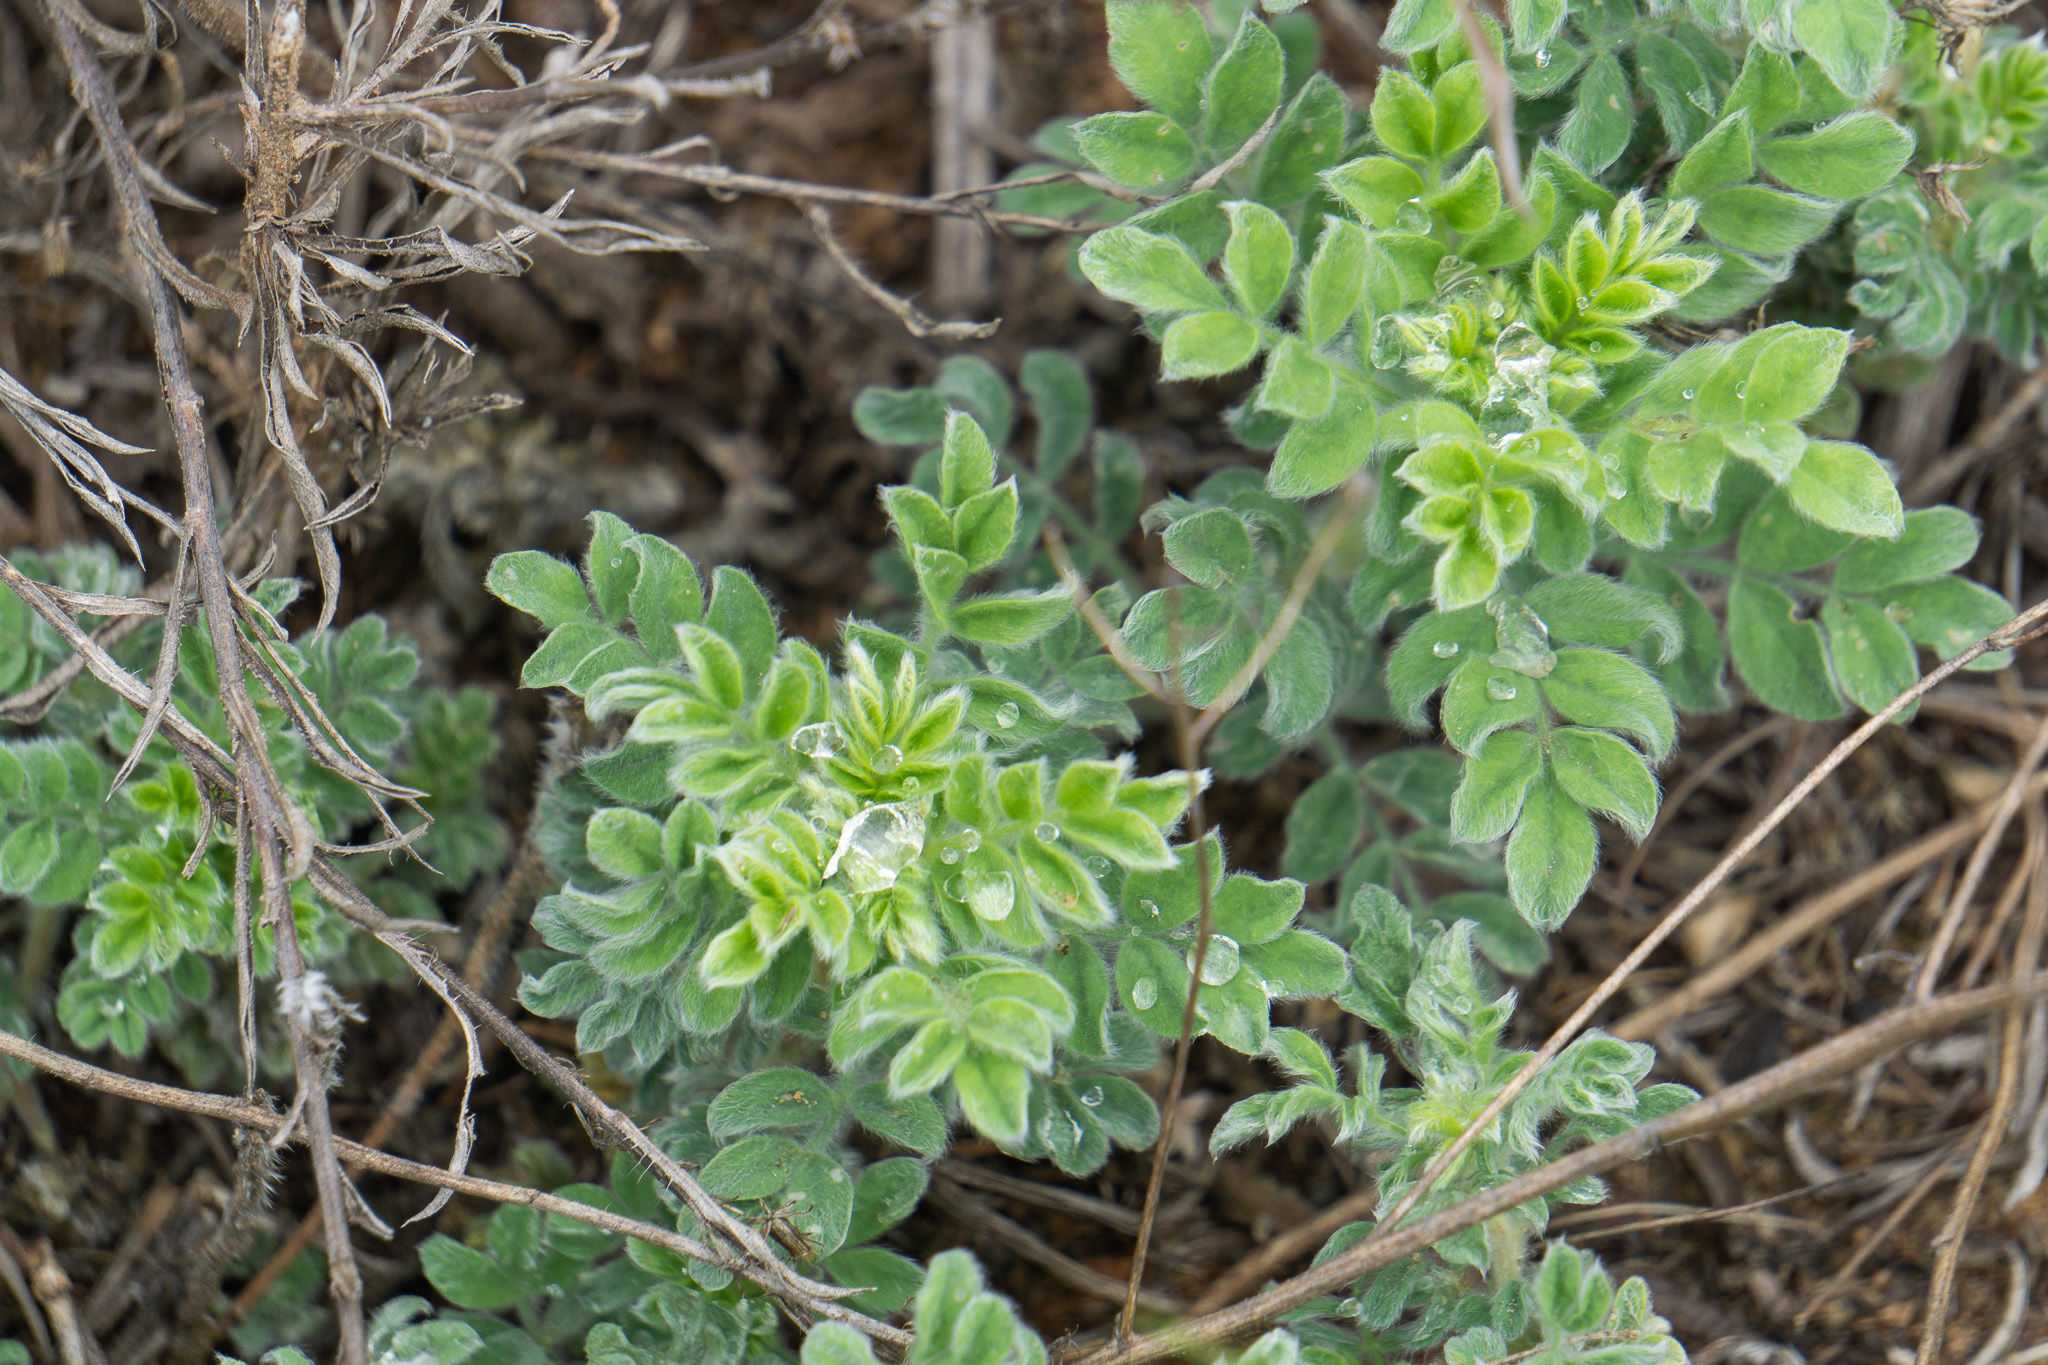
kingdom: Plantae
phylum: Tracheophyta
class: Magnoliopsida
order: Fabales
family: Fabaceae
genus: Dalea
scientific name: Dalea obovata
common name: Pussyfoot
